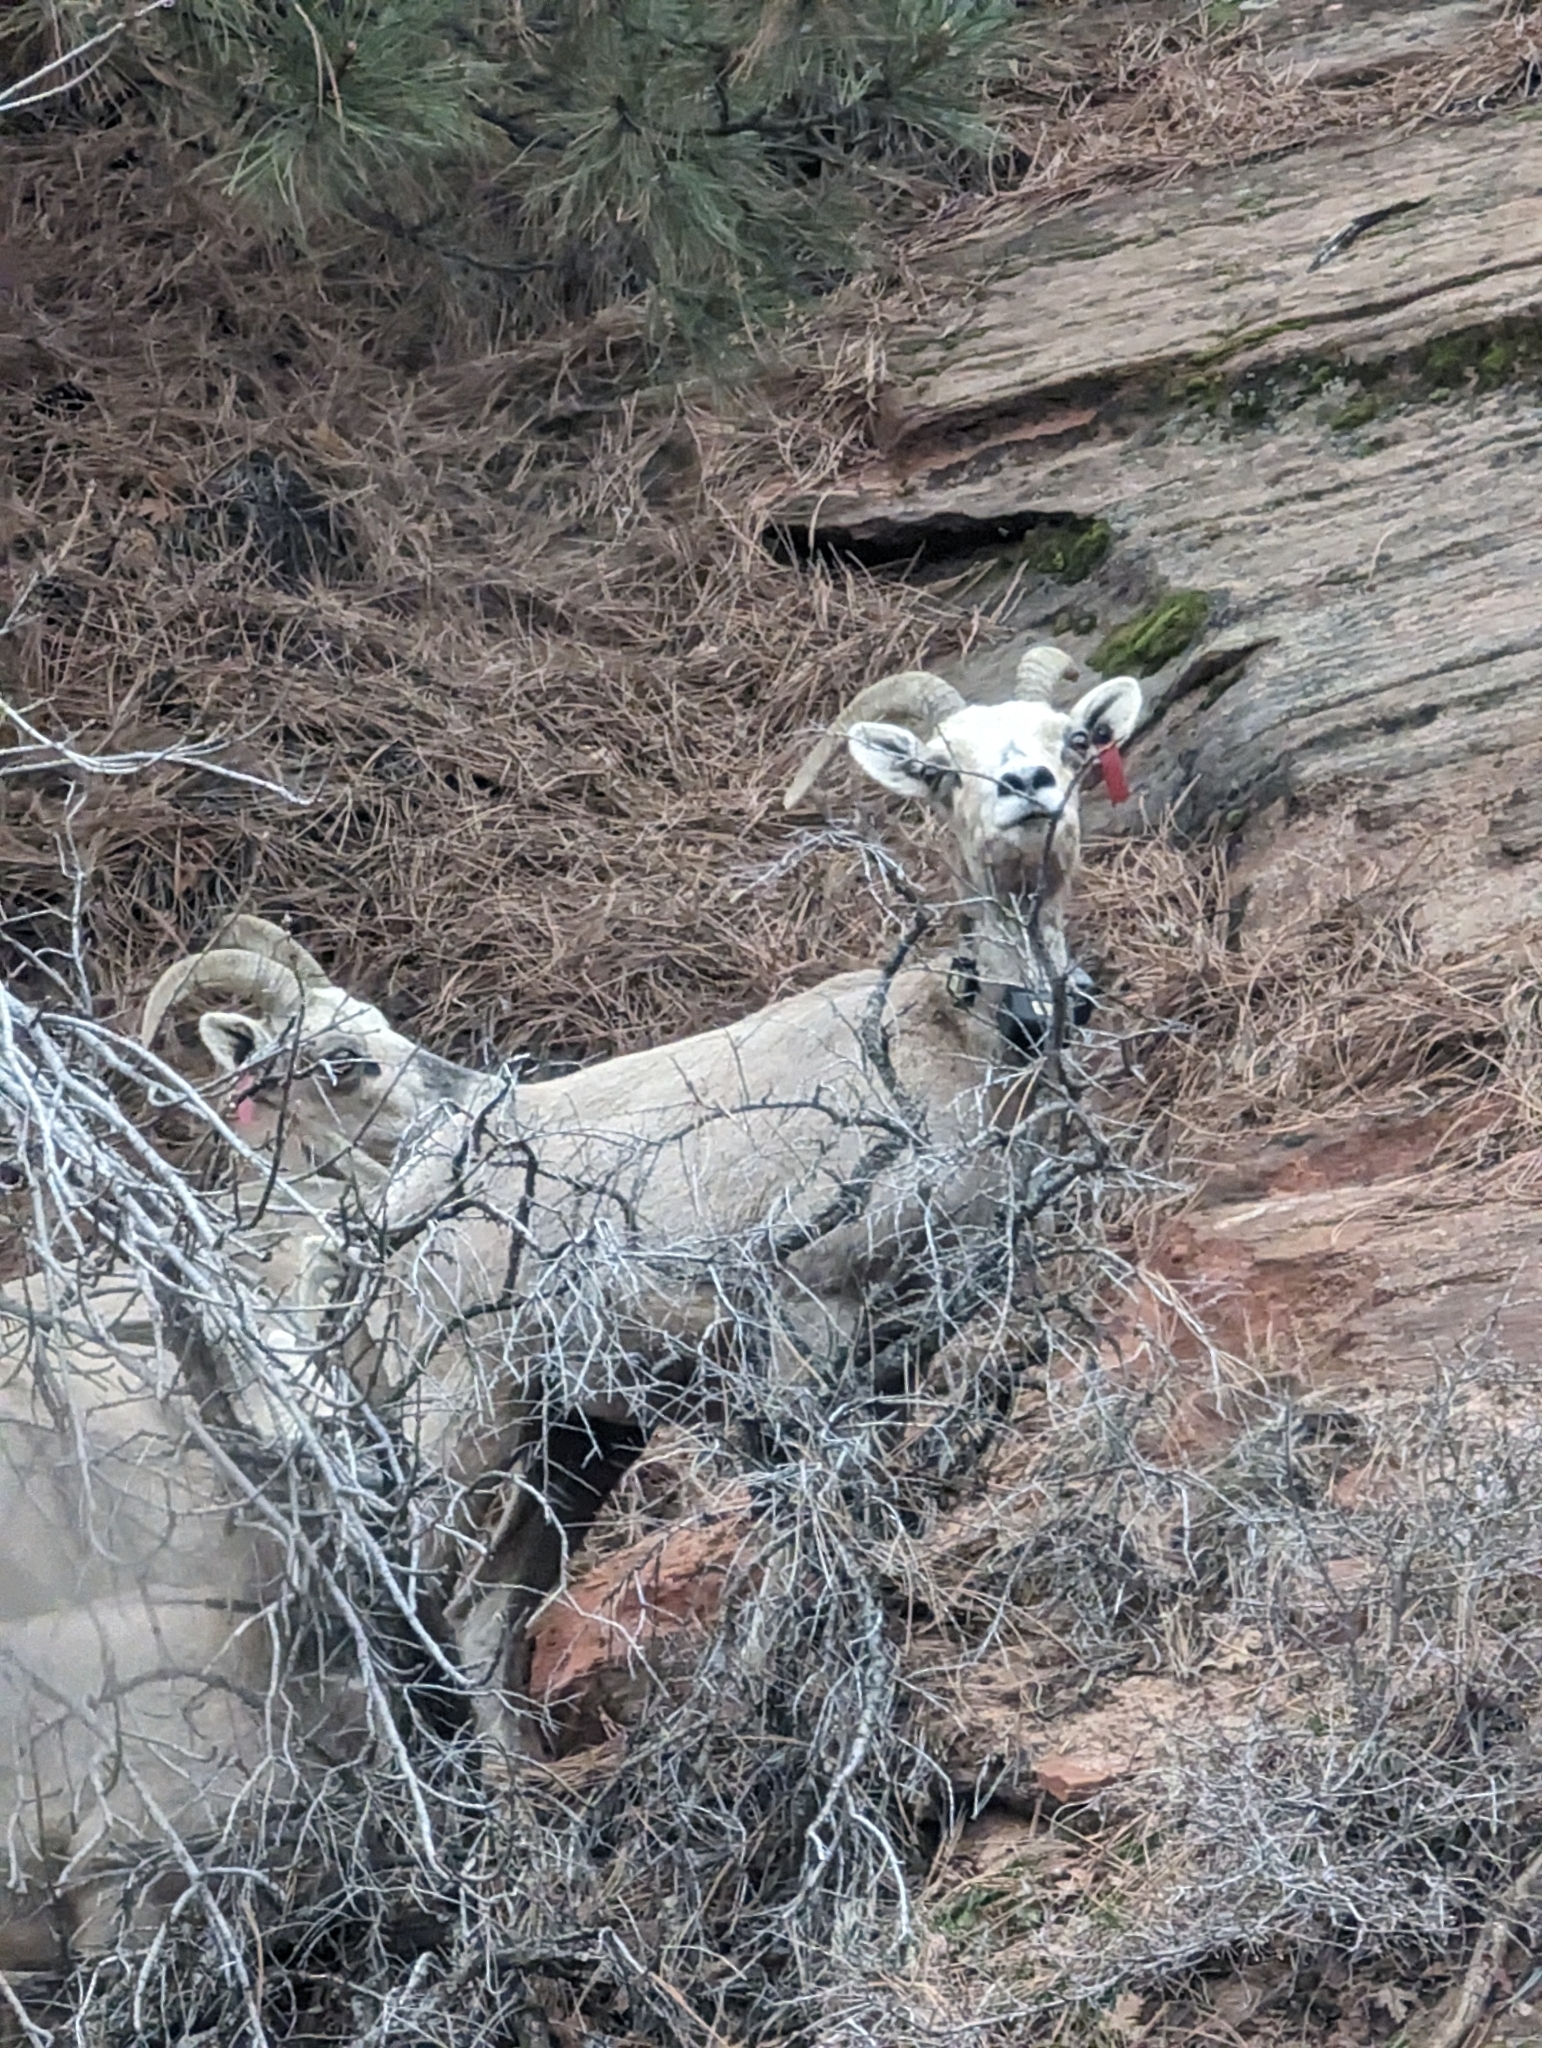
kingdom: Animalia
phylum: Chordata
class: Mammalia
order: Artiodactyla
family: Bovidae
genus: Ovis
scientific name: Ovis canadensis
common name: Bighorn sheep
